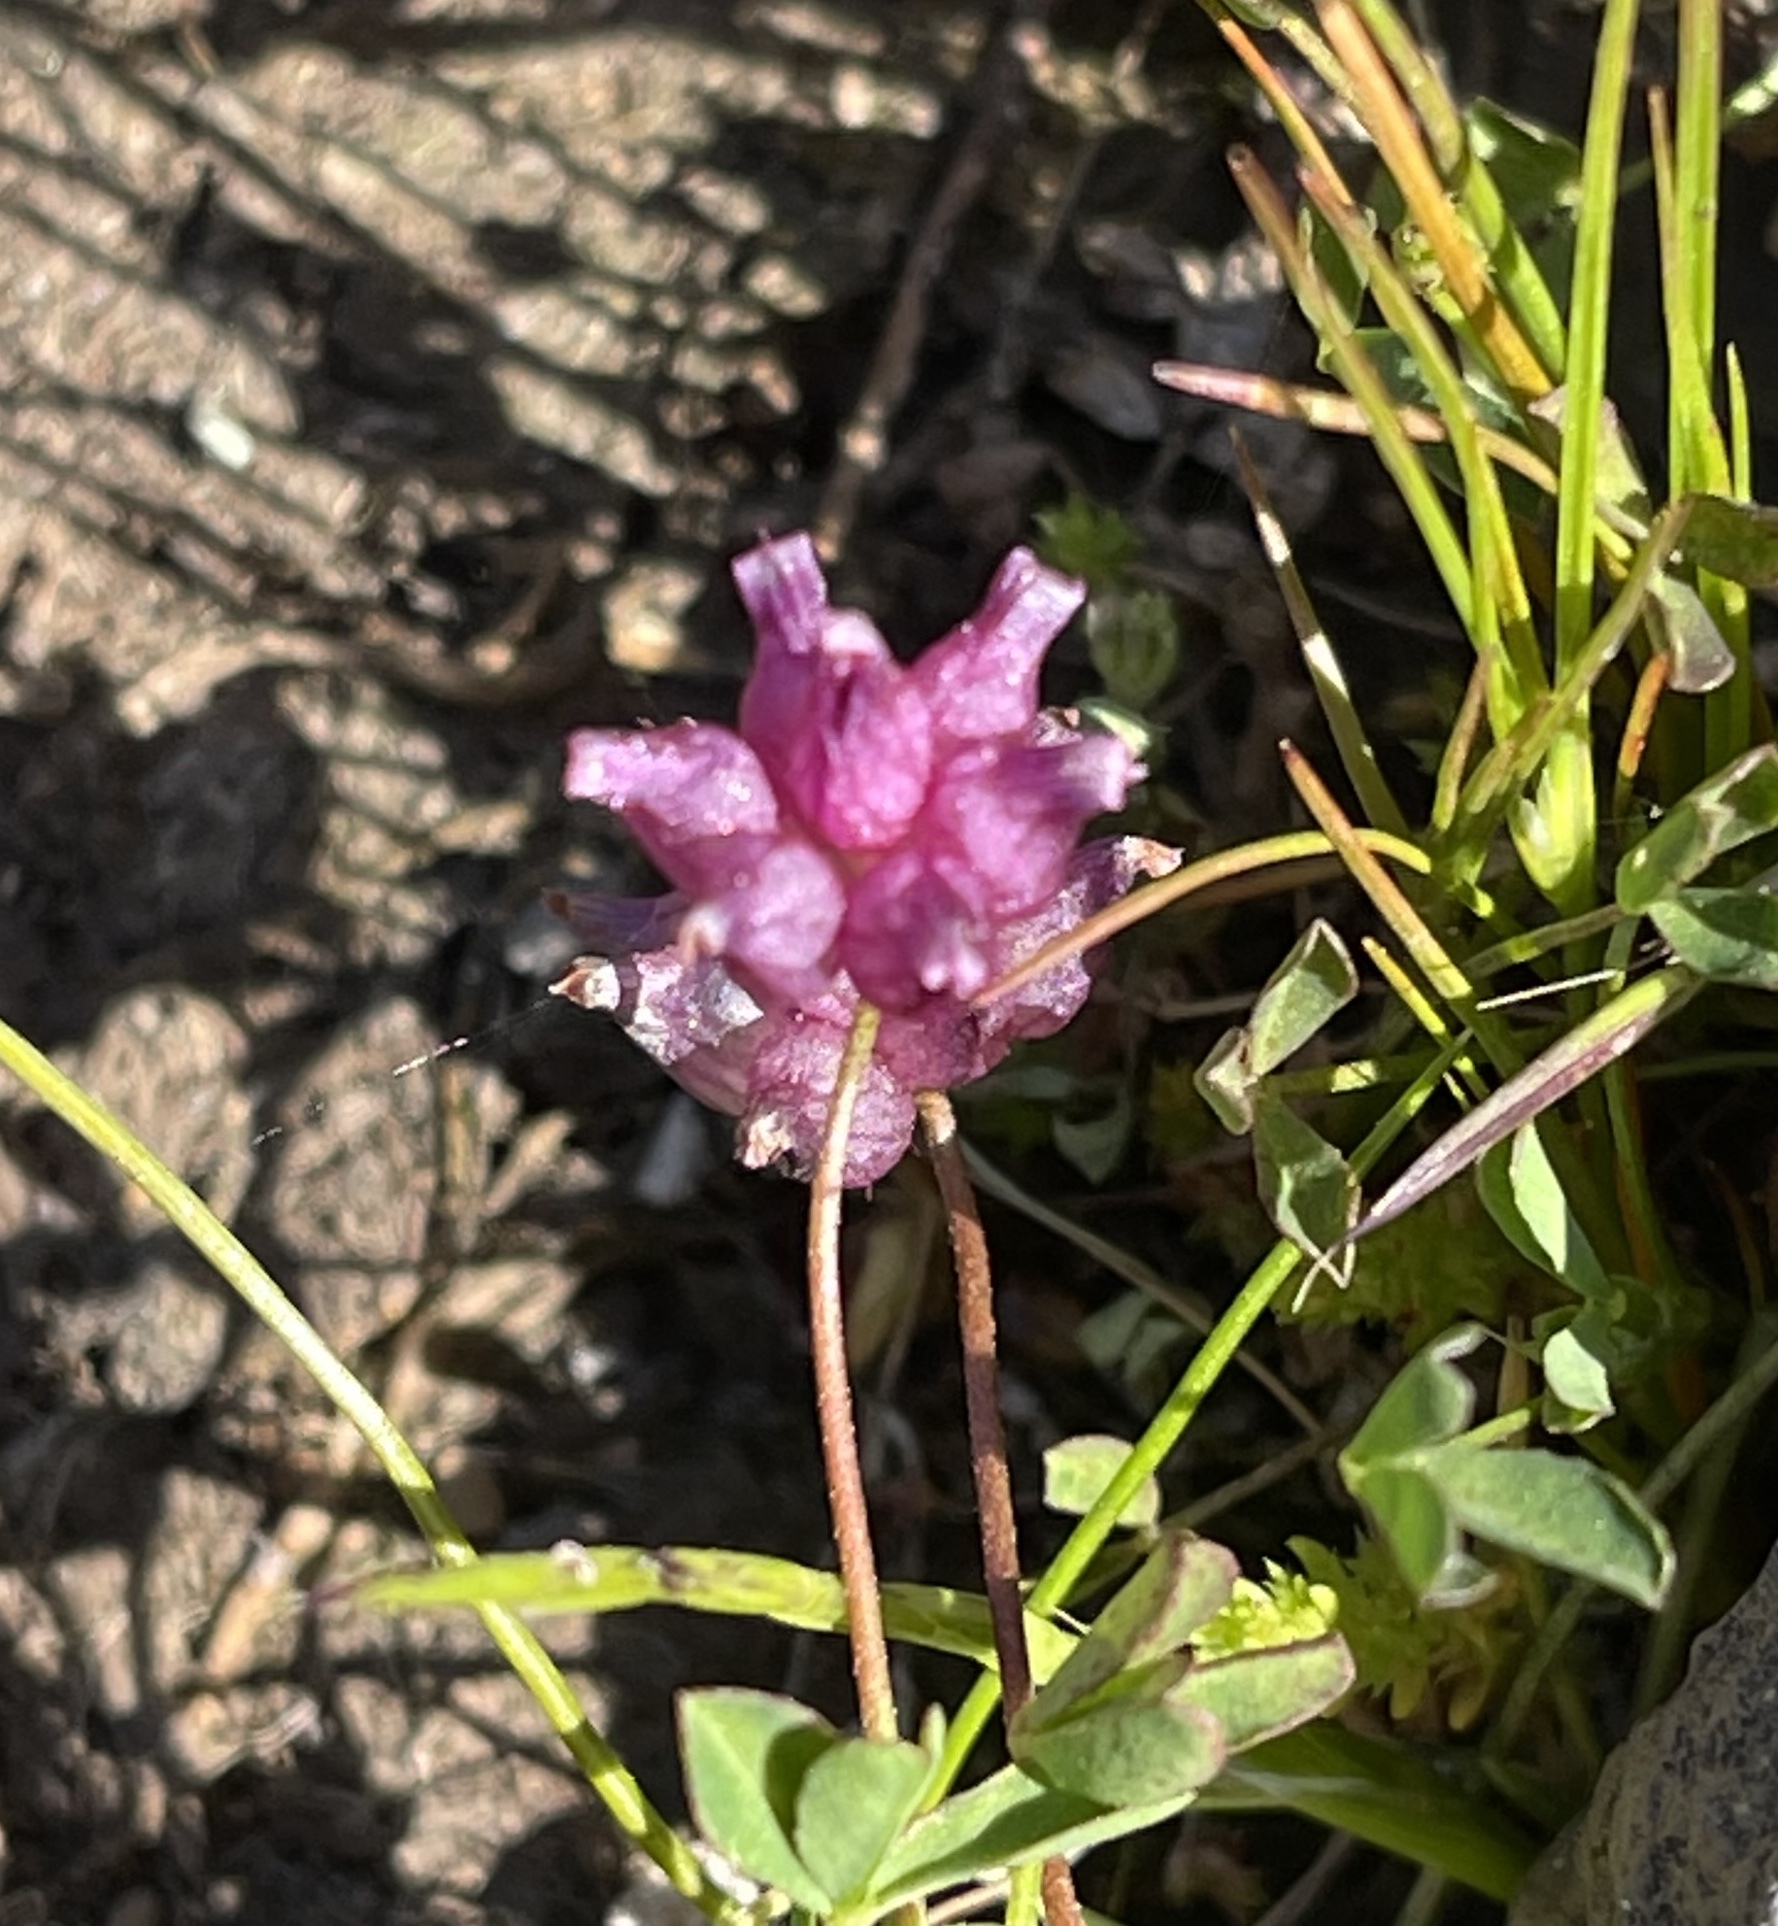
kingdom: Plantae
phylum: Tracheophyta
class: Magnoliopsida
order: Fabales
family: Fabaceae
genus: Trifolium
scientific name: Trifolium depauperatum
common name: Poverty clover
